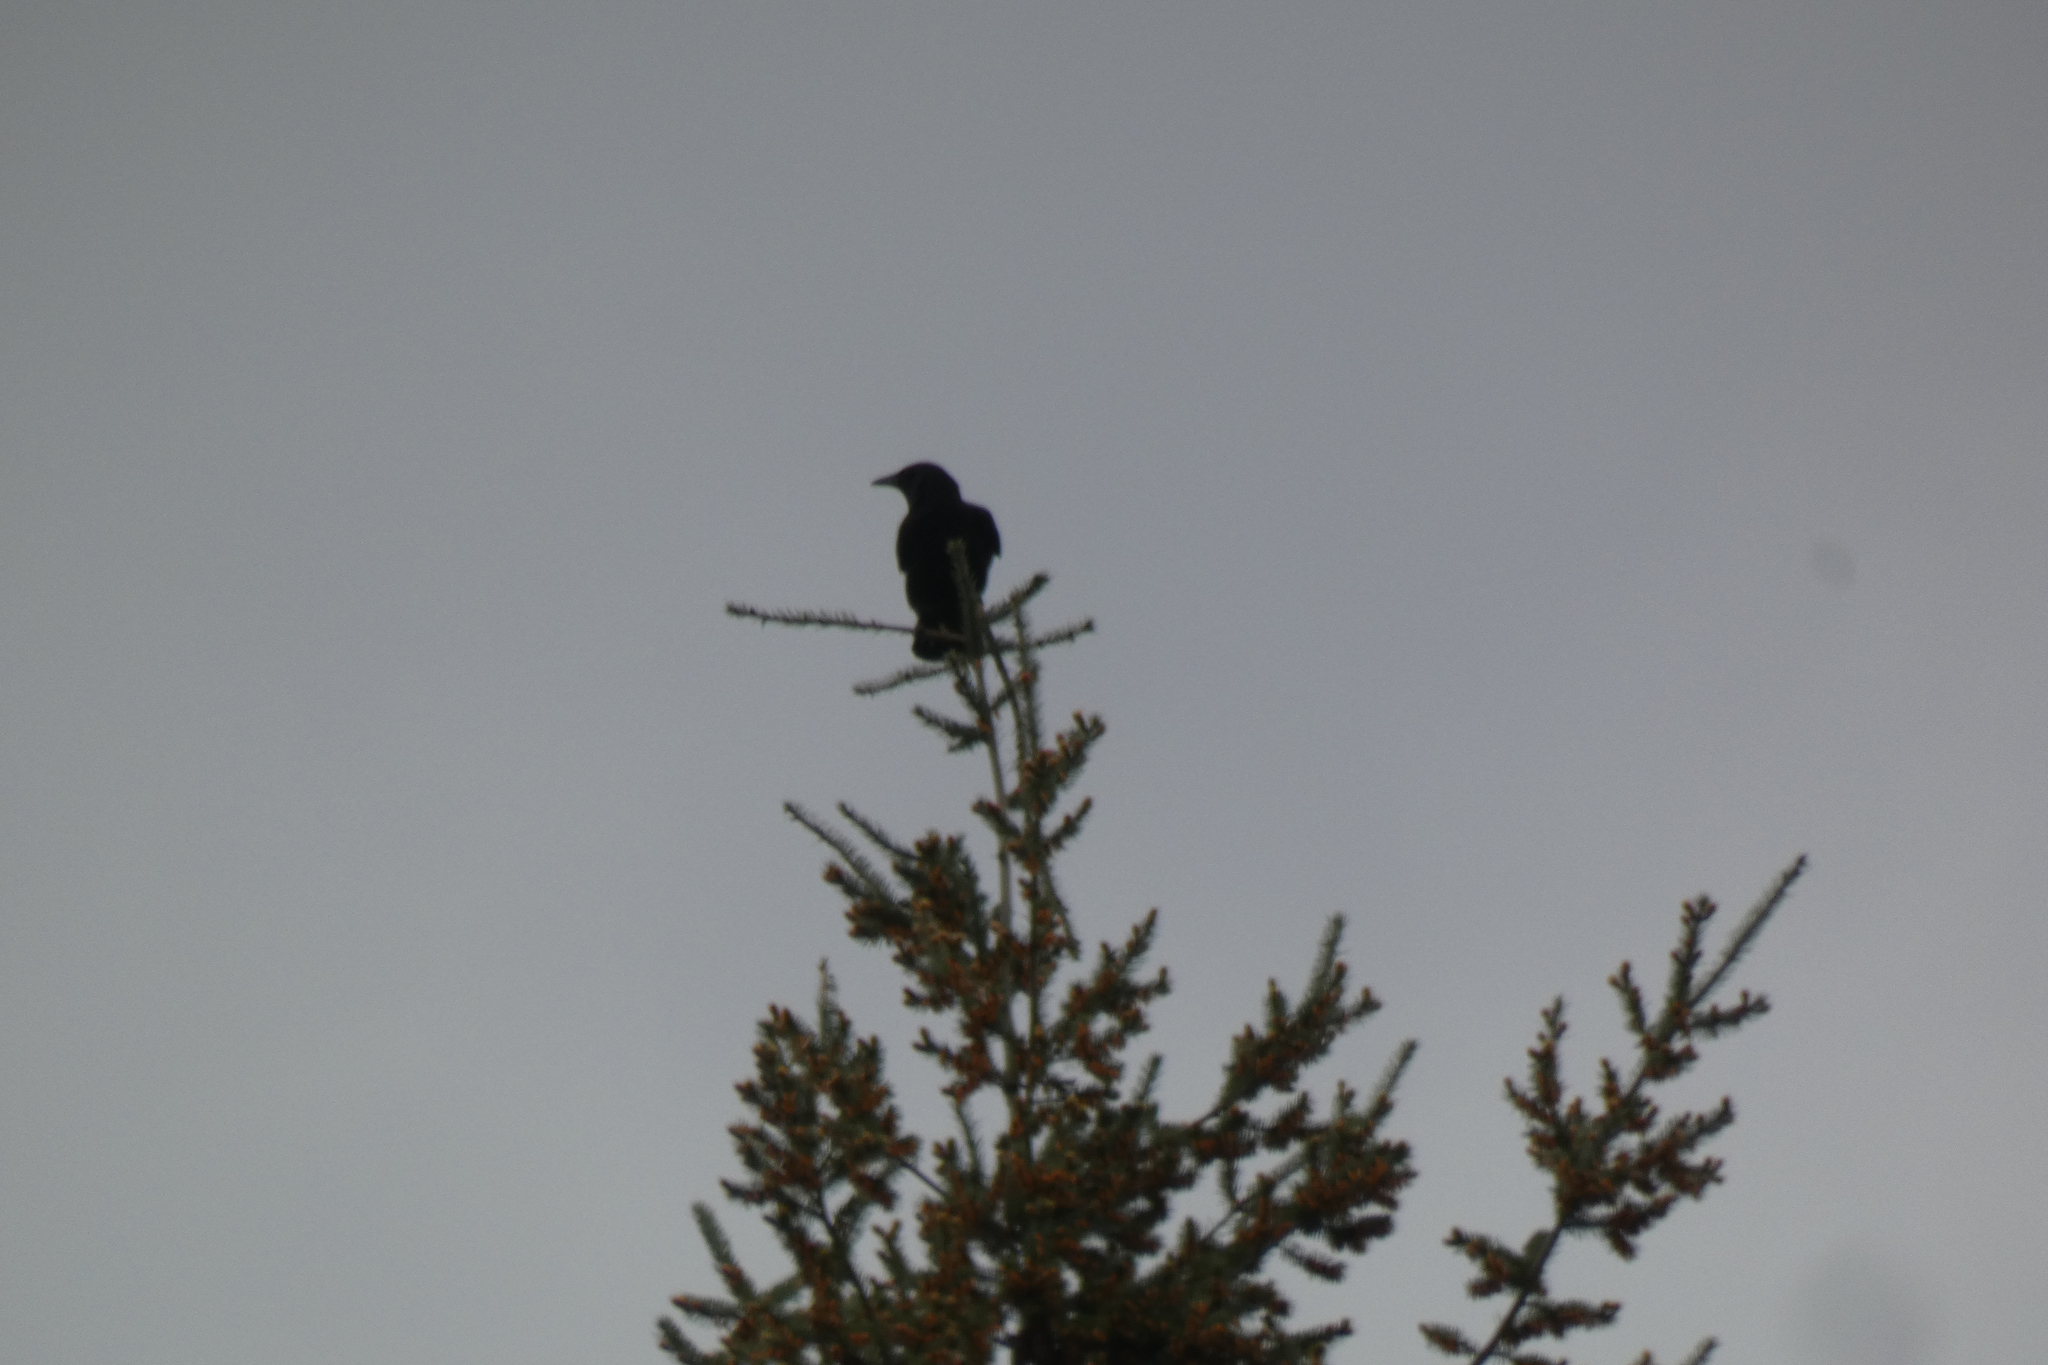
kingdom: Animalia
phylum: Chordata
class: Aves
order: Passeriformes
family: Corvidae
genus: Corvus
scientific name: Corvus brachyrhynchos
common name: American crow
